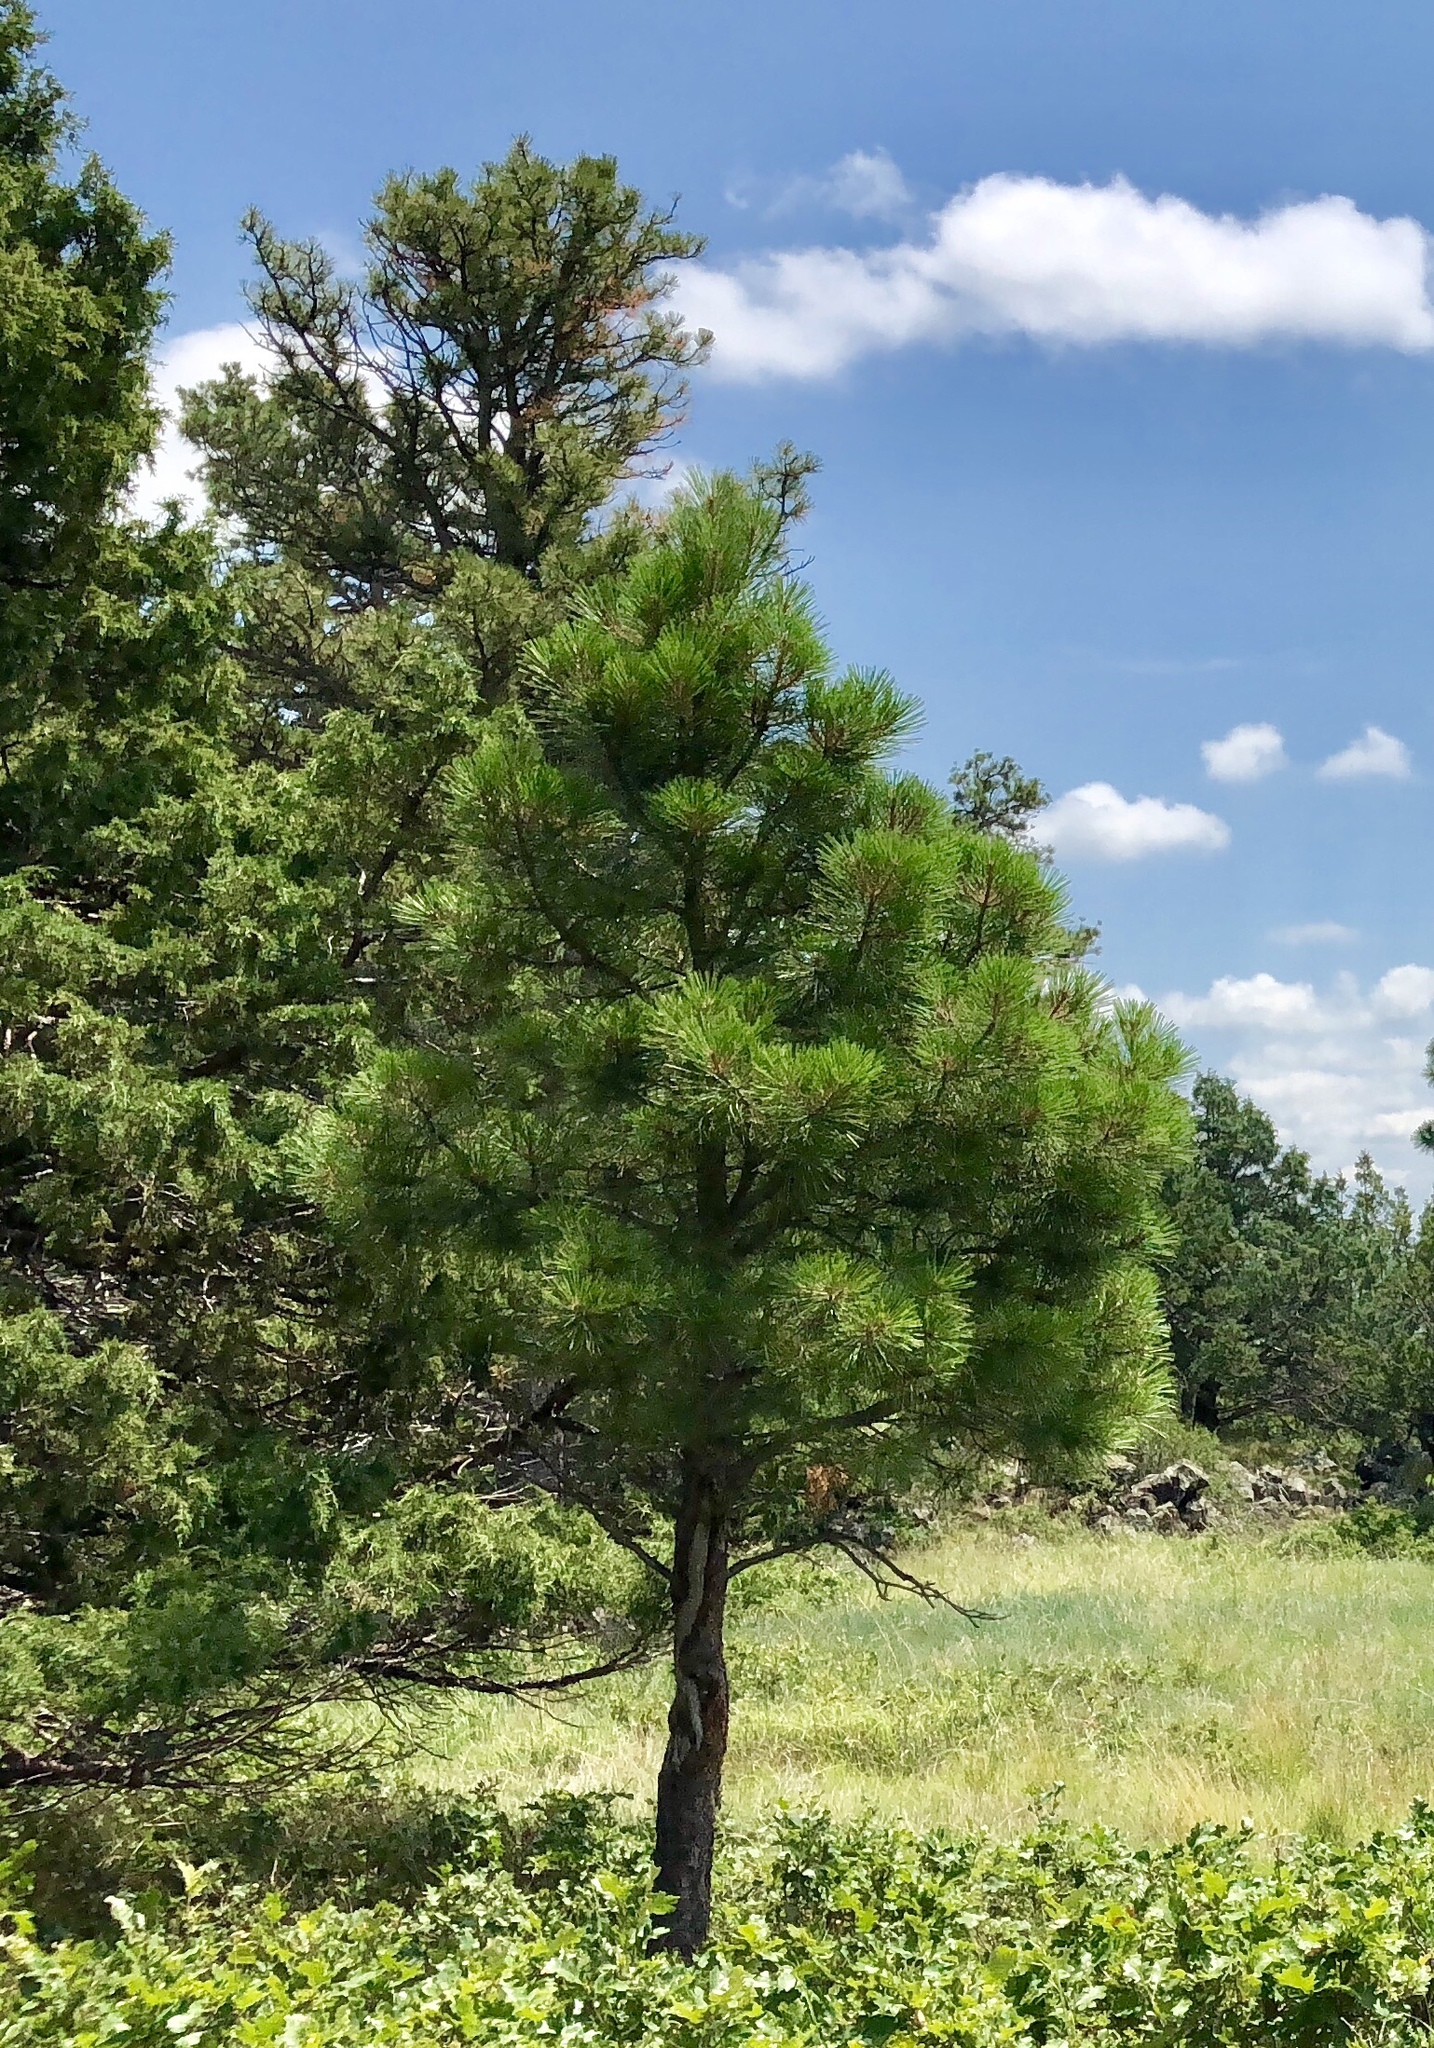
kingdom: Plantae
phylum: Tracheophyta
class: Pinopsida
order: Pinales
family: Pinaceae
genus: Pinus
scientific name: Pinus ponderosa
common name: Western yellow-pine
